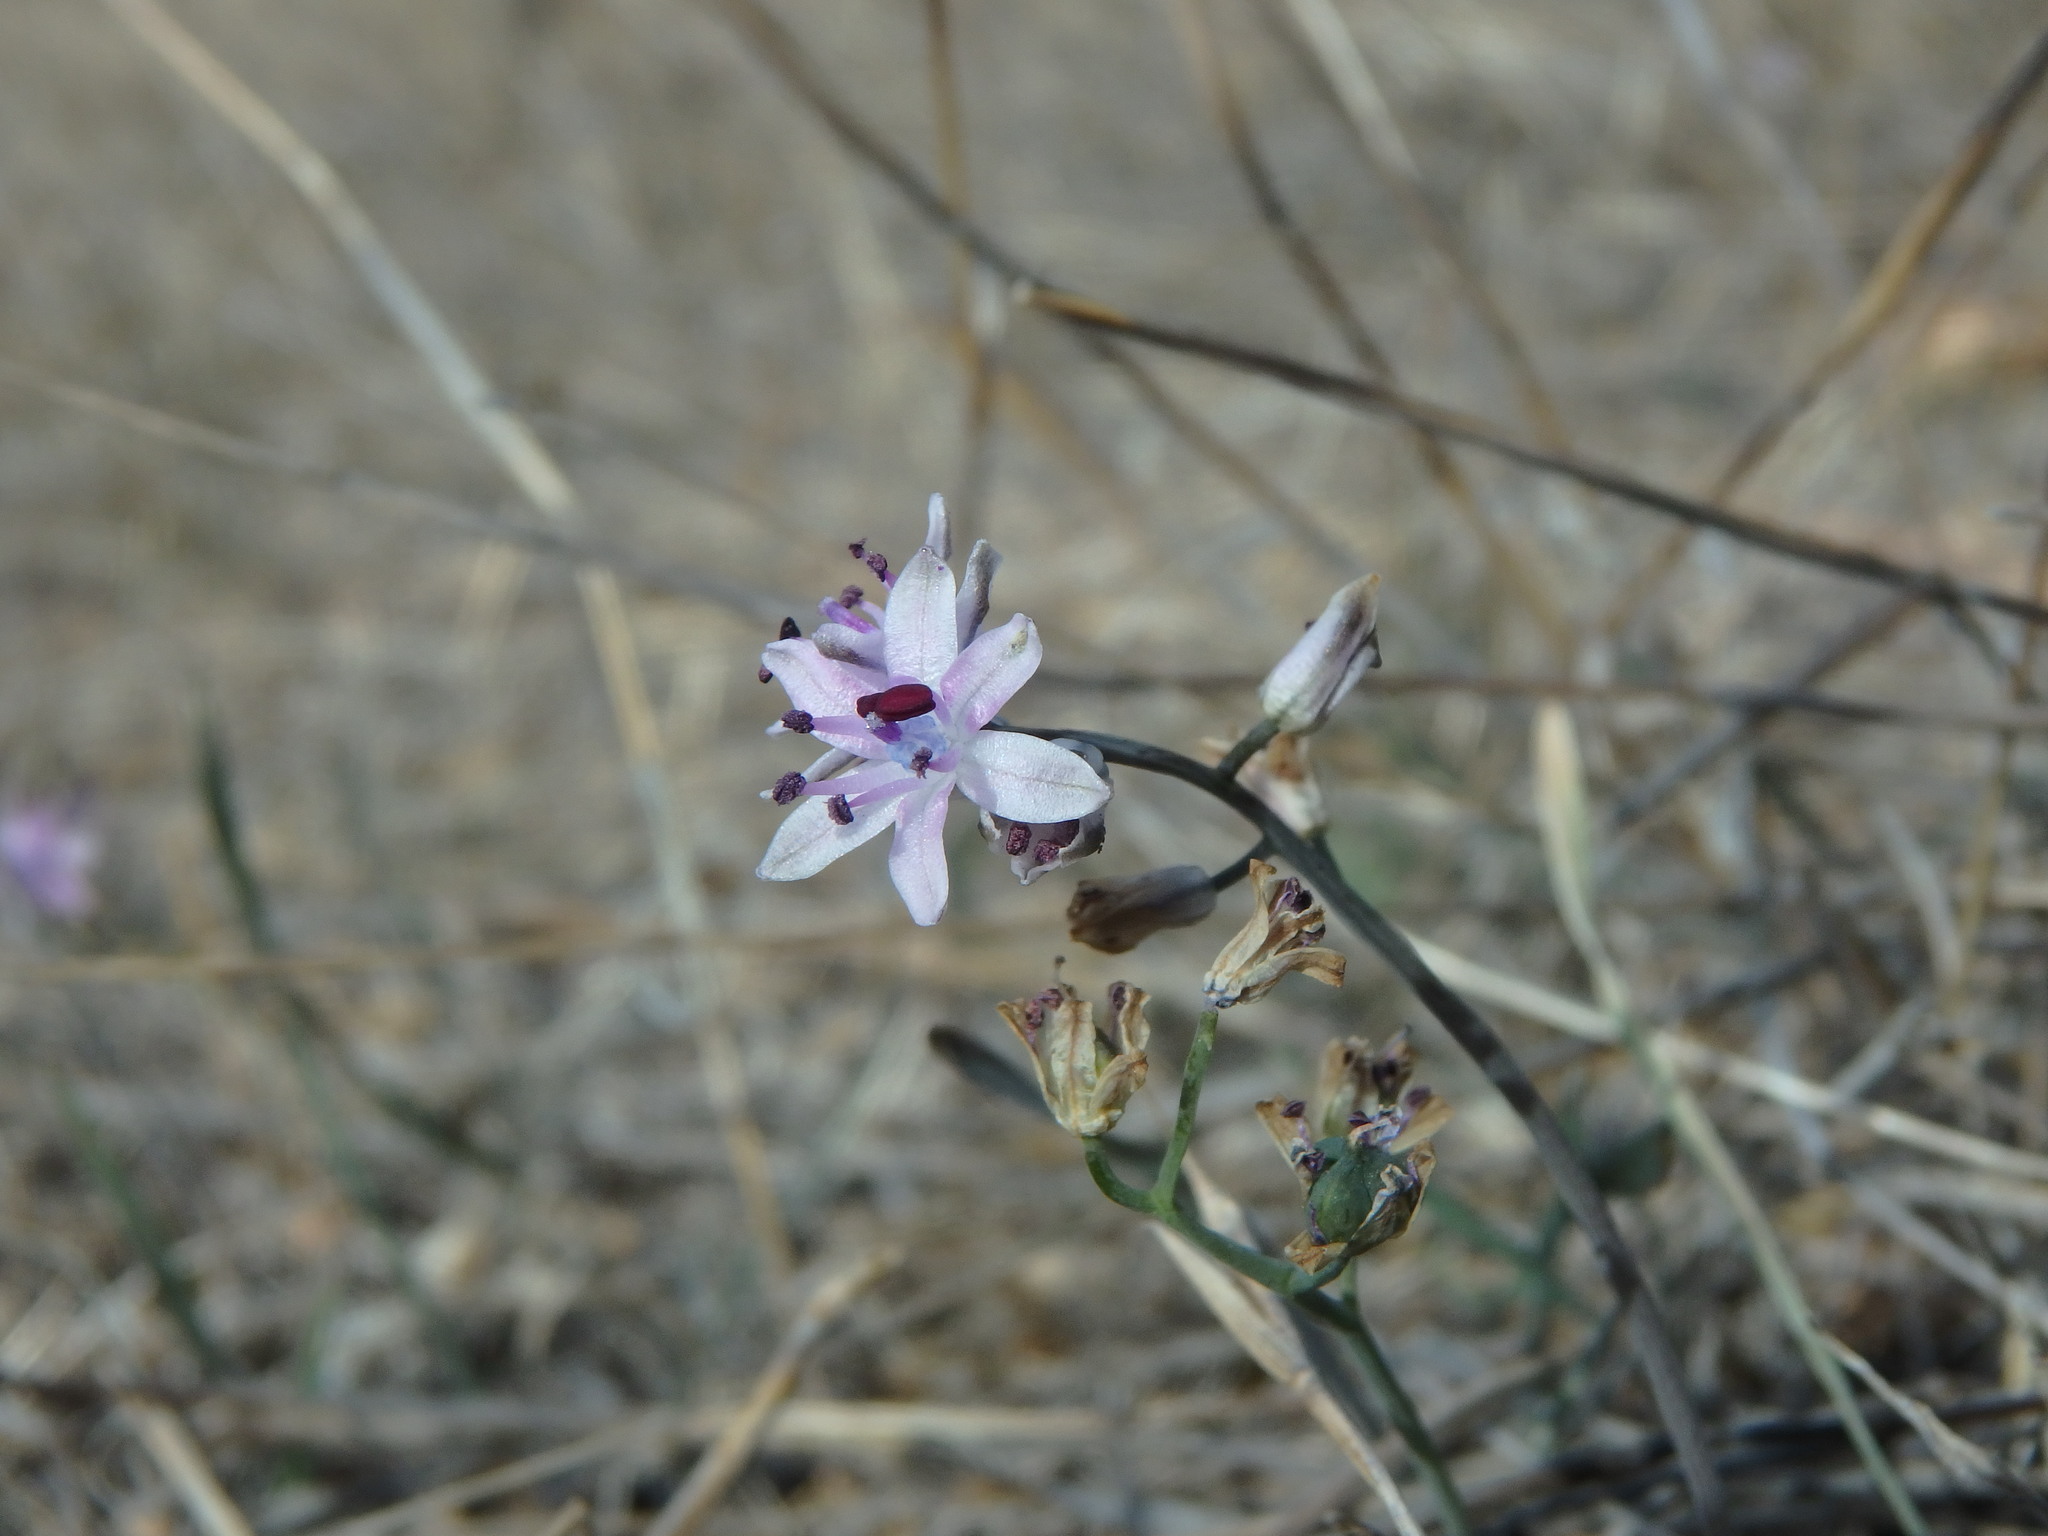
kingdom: Plantae
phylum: Tracheophyta
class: Liliopsida
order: Asparagales
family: Asparagaceae
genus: Prospero
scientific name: Prospero autumnale
